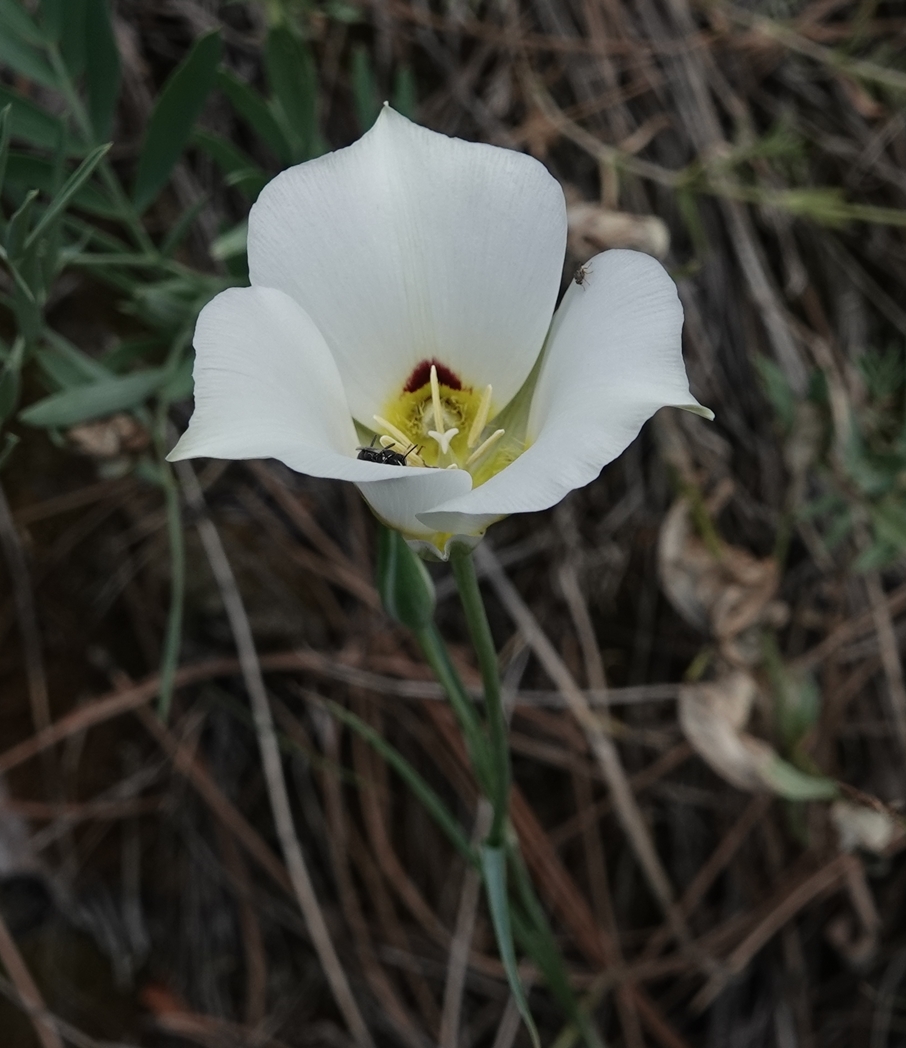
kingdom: Plantae
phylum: Tracheophyta
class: Liliopsida
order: Liliales
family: Liliaceae
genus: Calochortus
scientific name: Calochortus nuttallii
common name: Sego-lily
